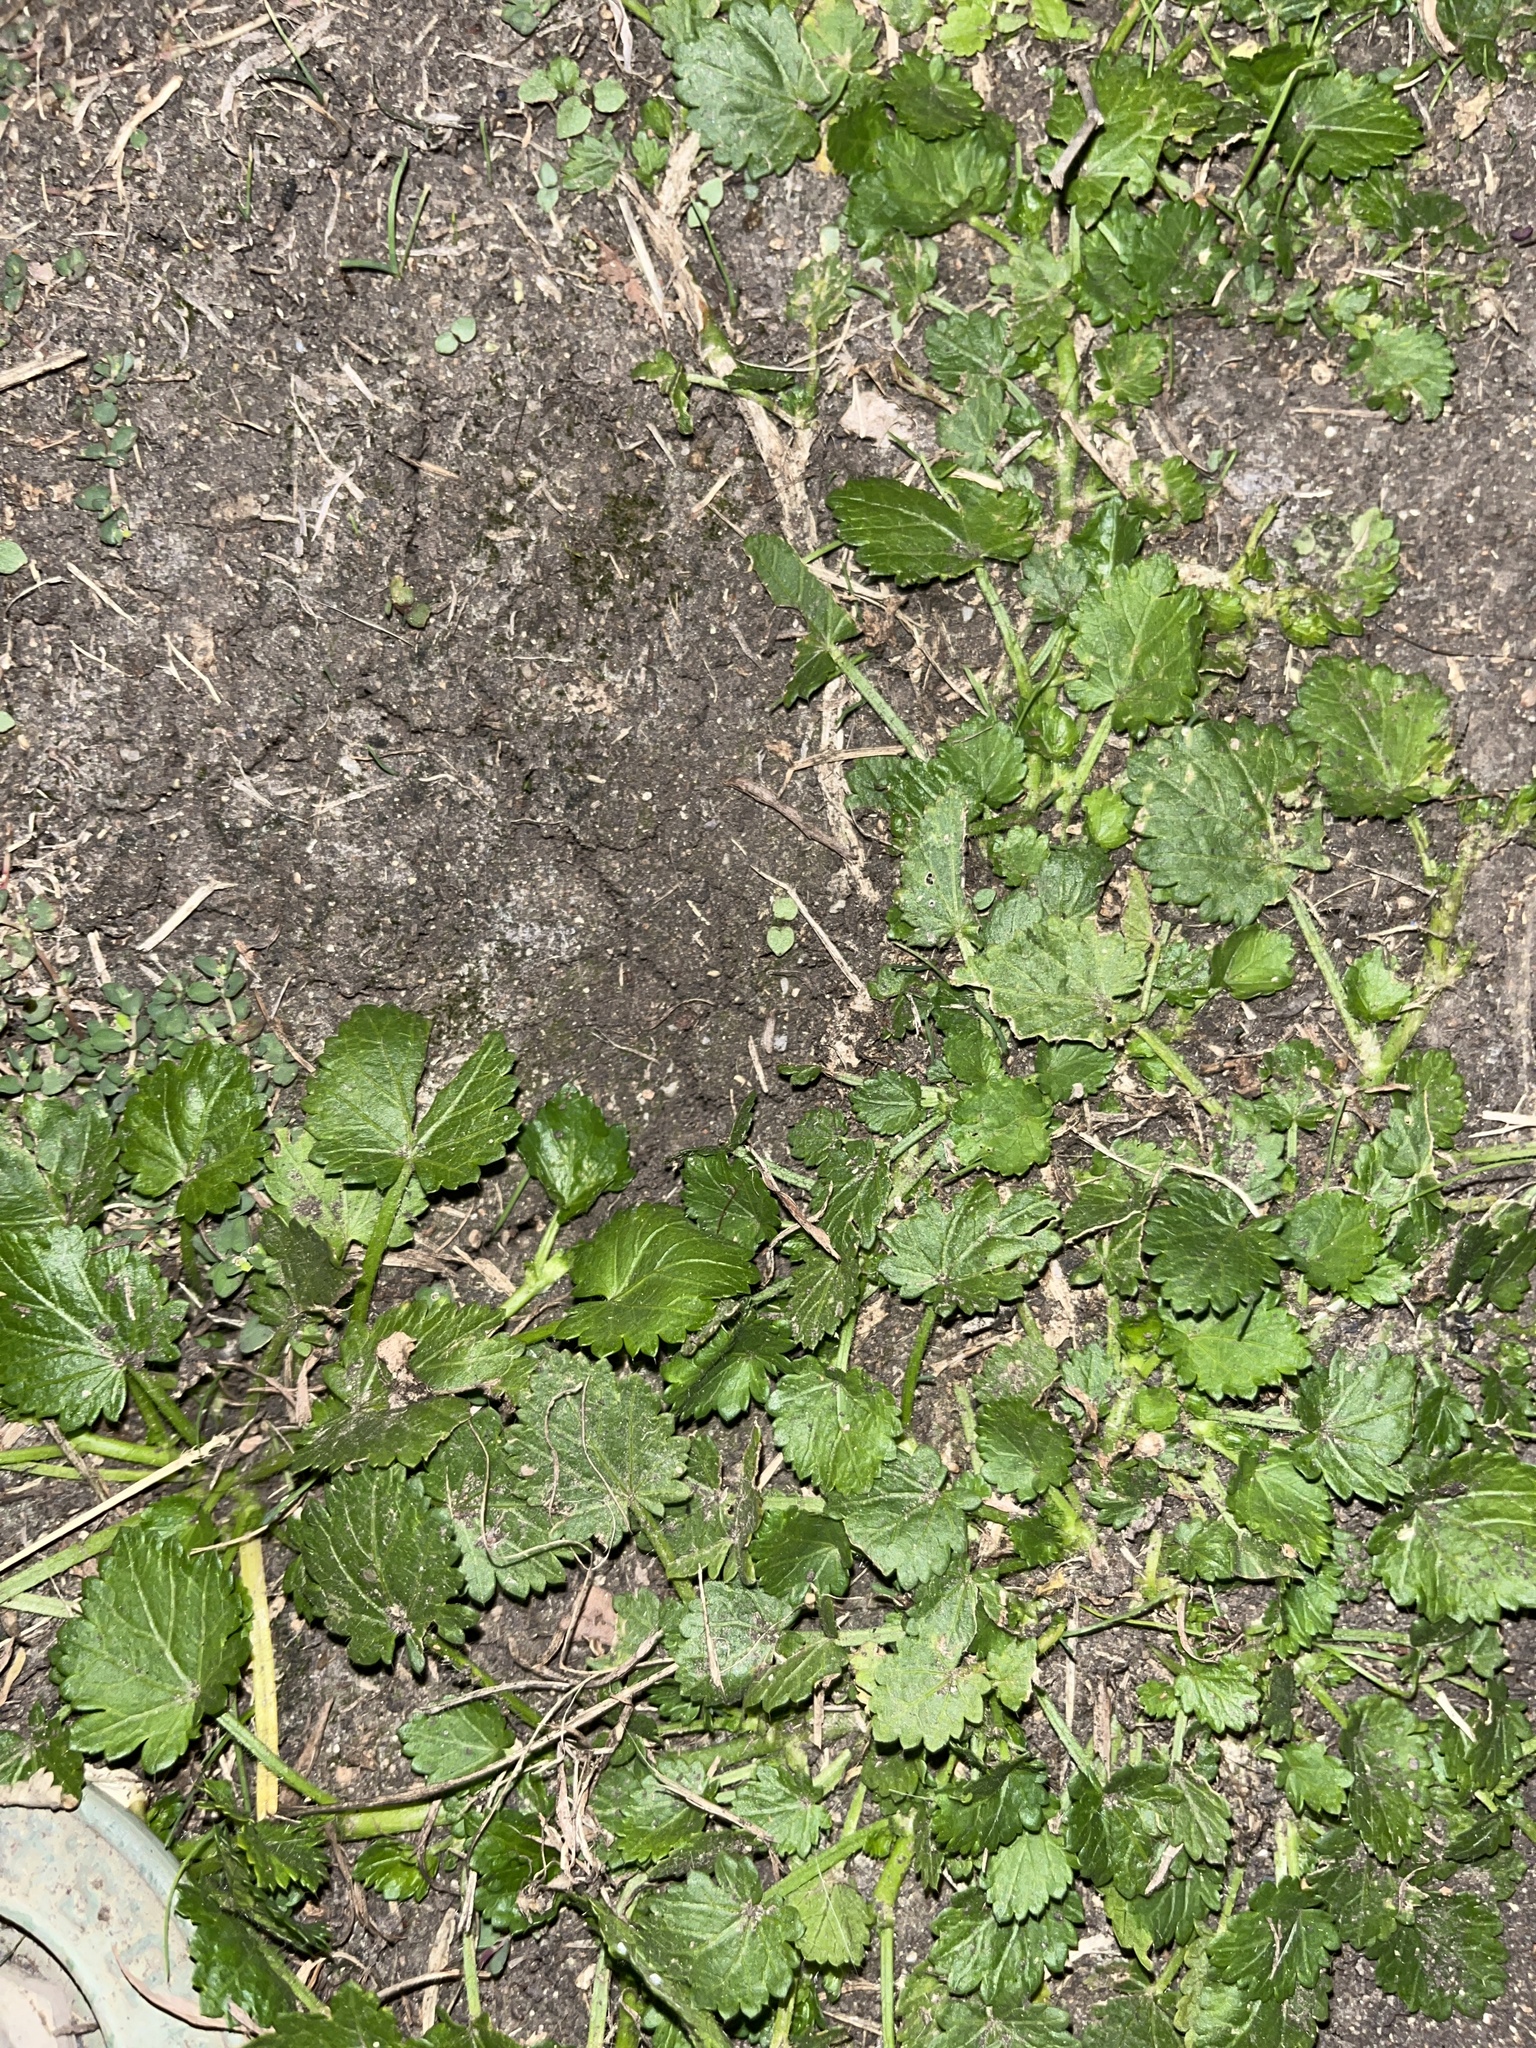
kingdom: Plantae
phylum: Tracheophyta
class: Magnoliopsida
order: Malvales
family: Malvaceae
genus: Modiola
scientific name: Modiola caroliniana
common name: Carolina bristlemallow
